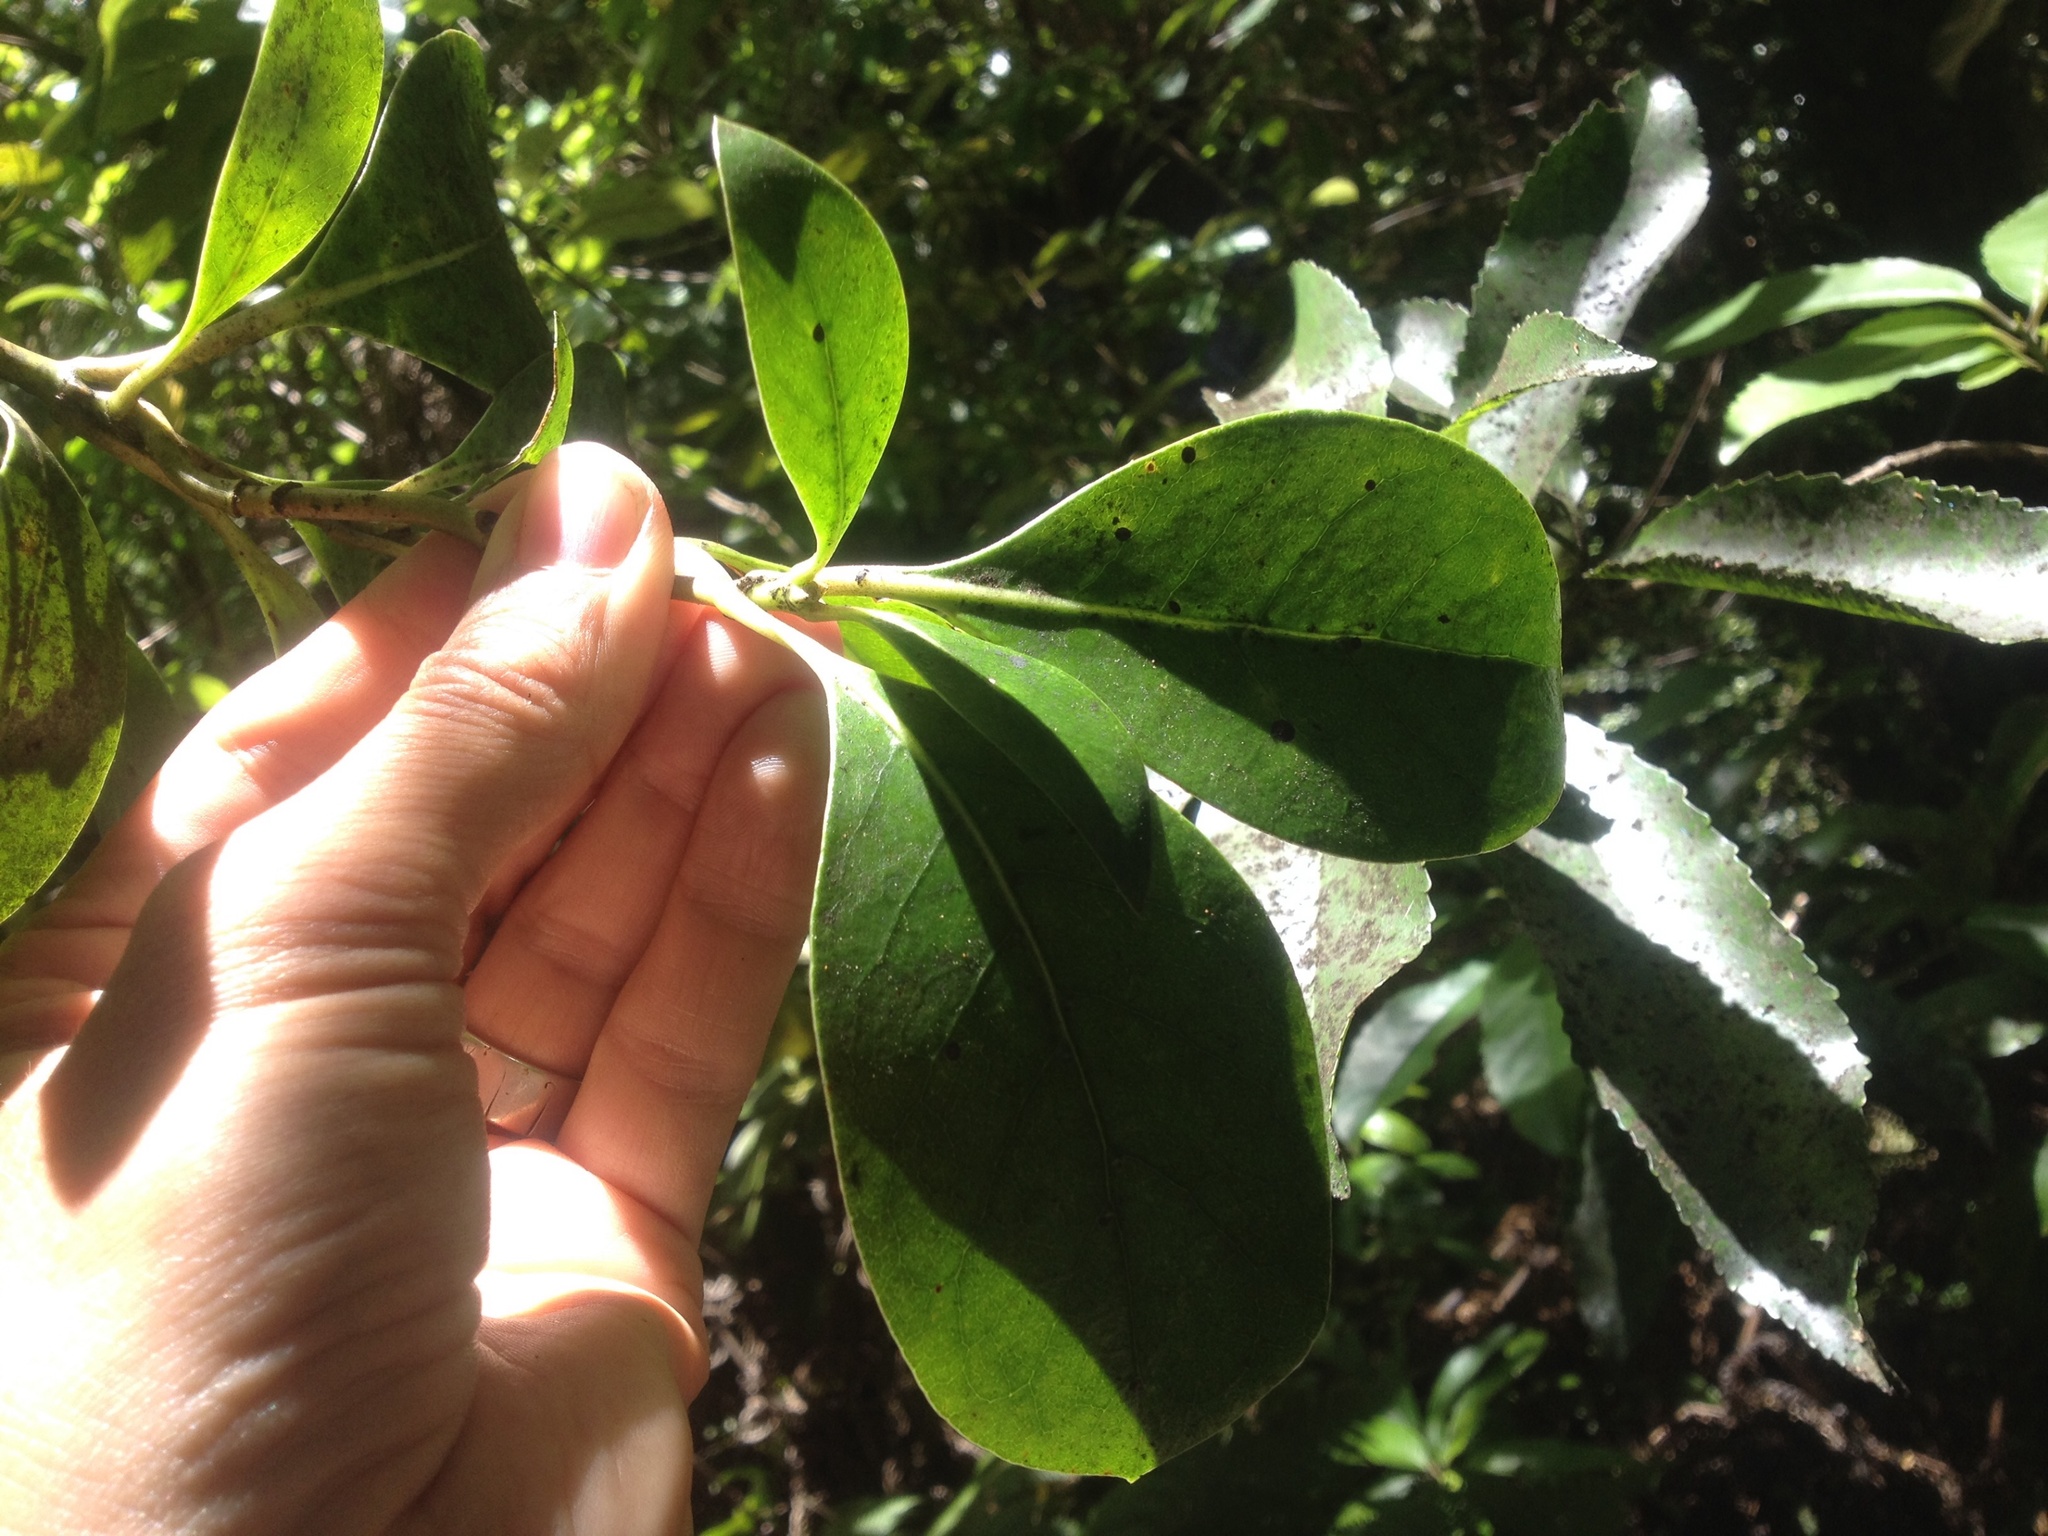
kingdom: Plantae
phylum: Tracheophyta
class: Magnoliopsida
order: Gentianales
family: Rubiaceae
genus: Coprosma
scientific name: Coprosma lucida
